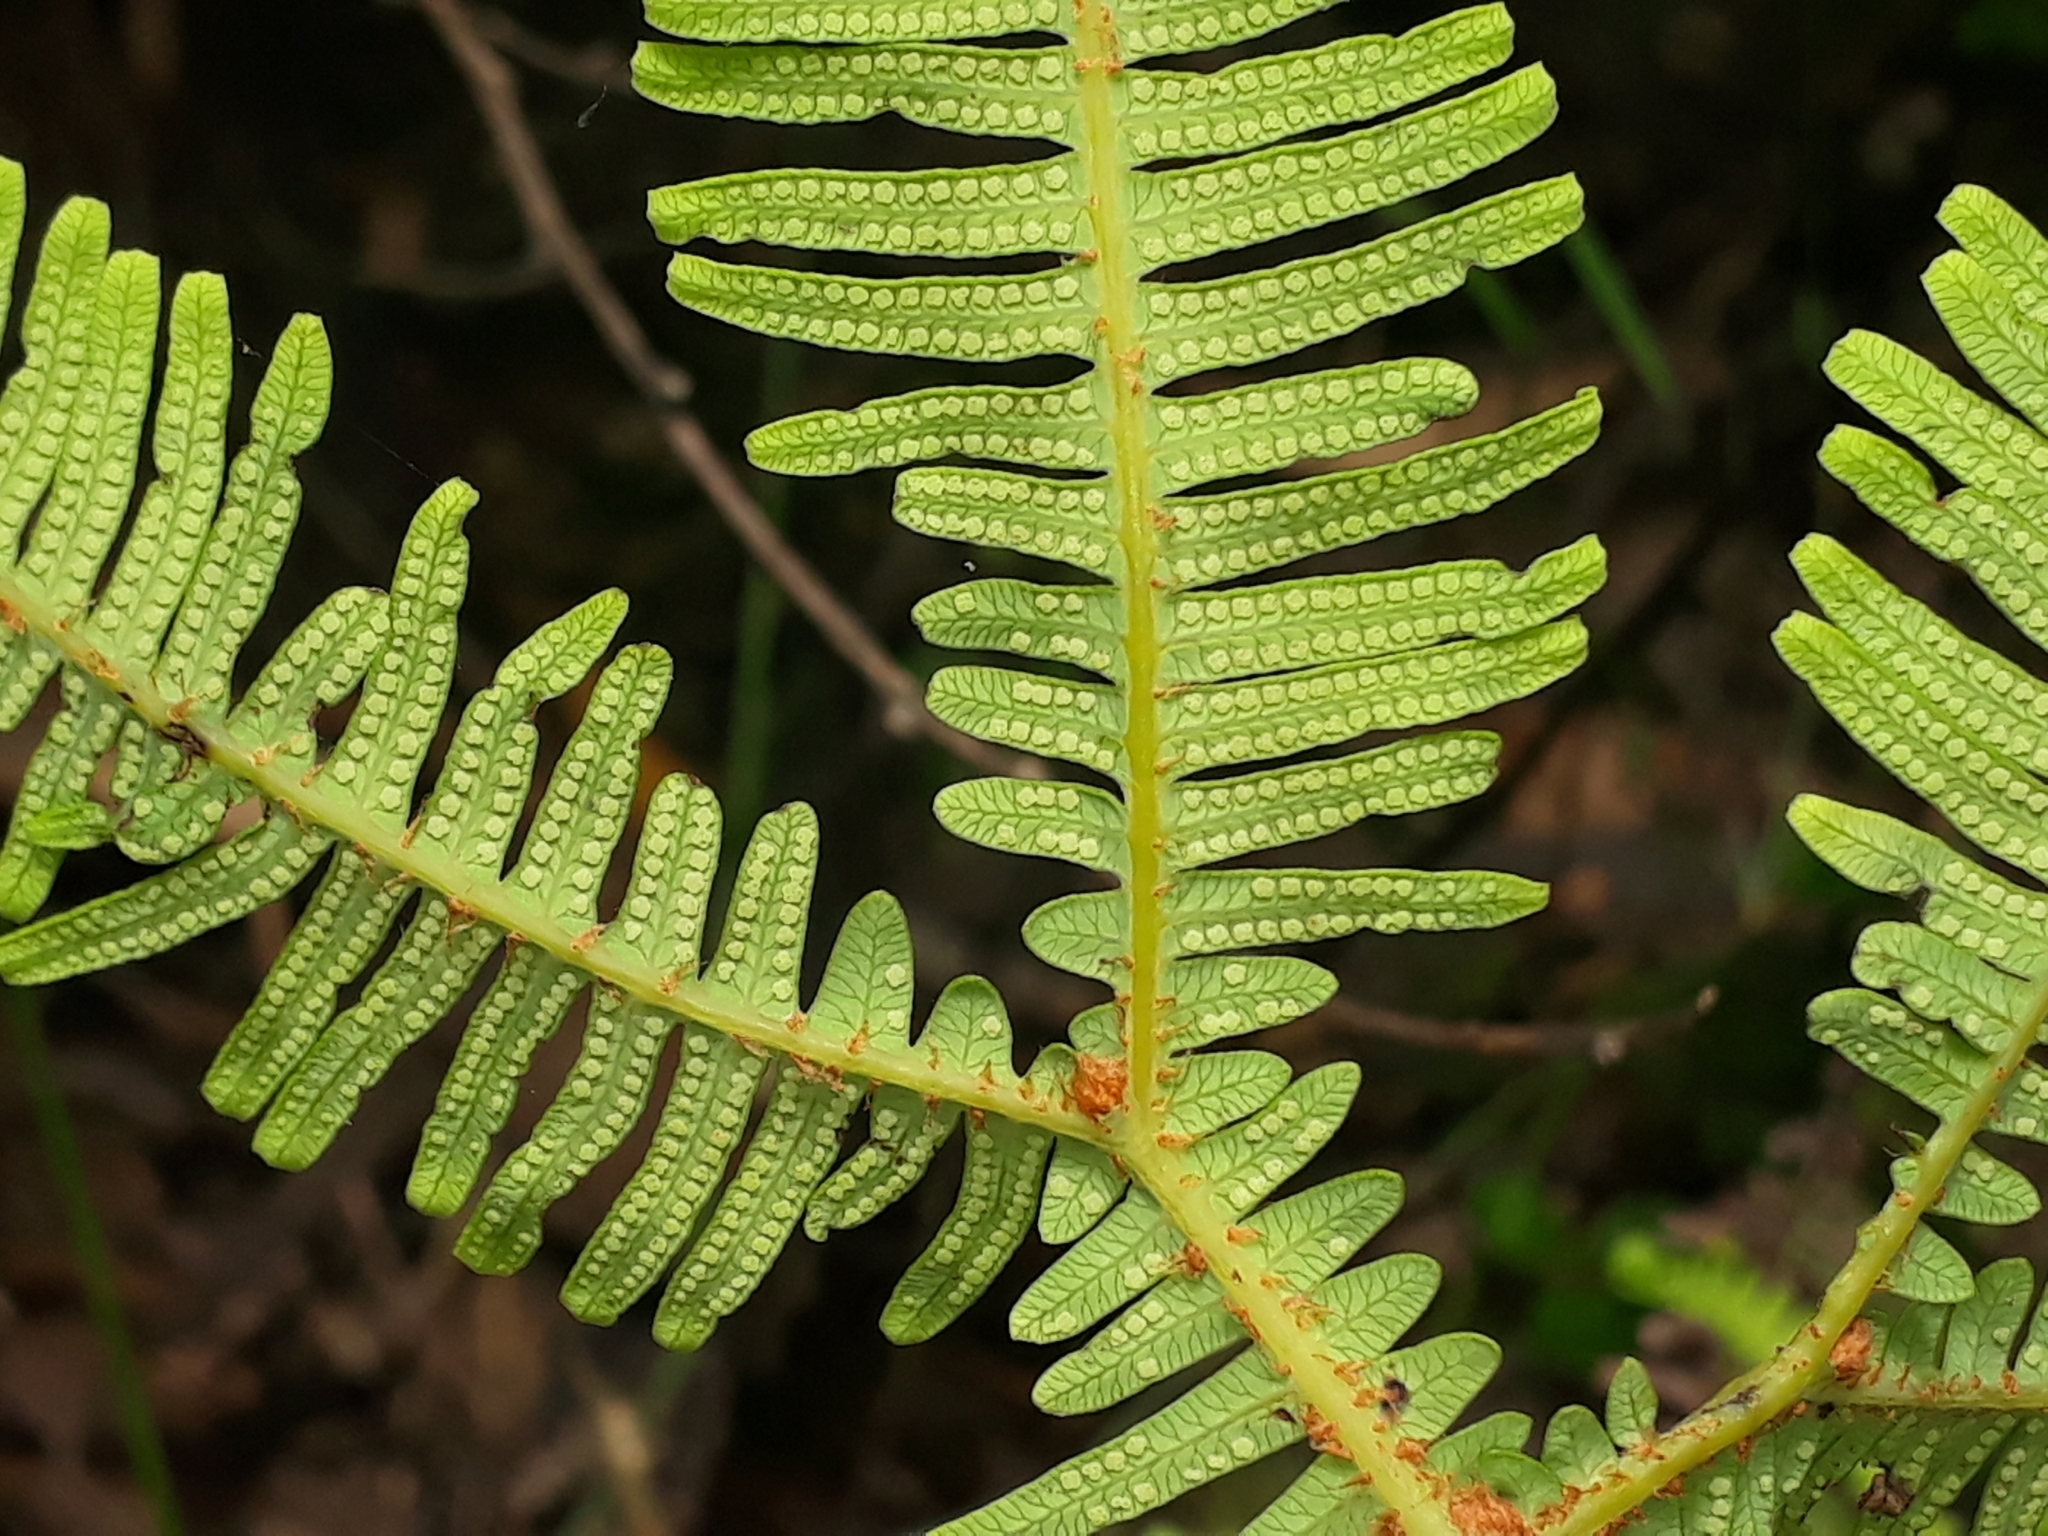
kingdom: Plantae
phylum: Tracheophyta
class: Polypodiopsida
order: Gleicheniales
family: Gleicheniaceae
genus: Sticherus
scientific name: Sticherus lobatus
